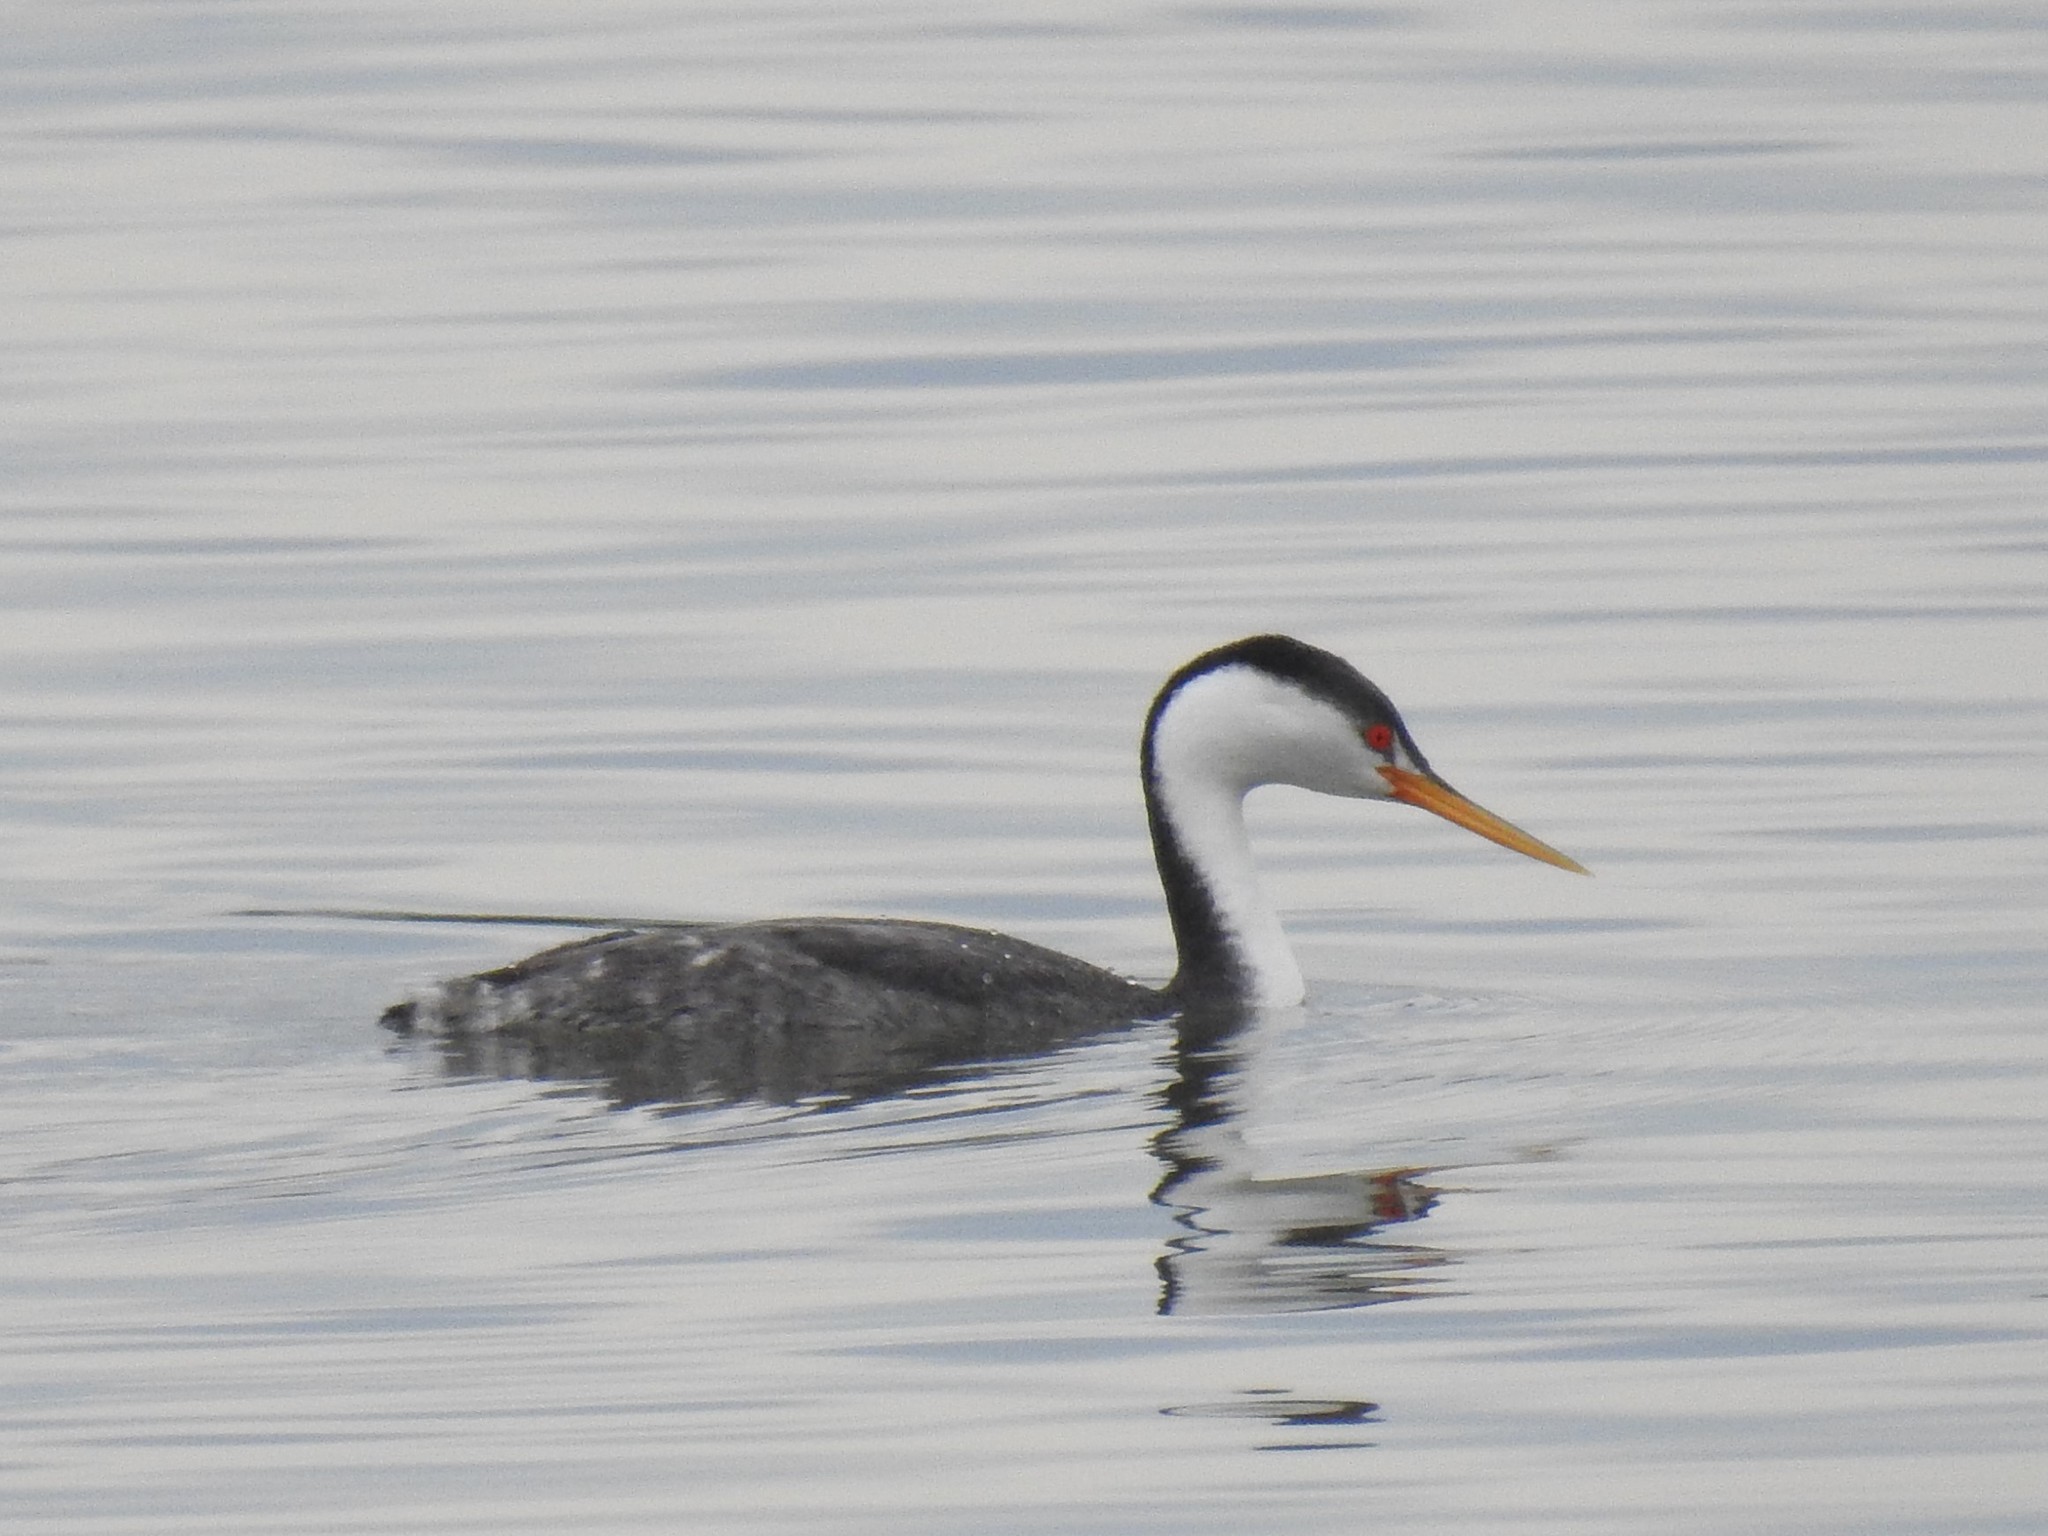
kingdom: Animalia
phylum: Chordata
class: Aves
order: Podicipediformes
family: Podicipedidae
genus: Aechmophorus
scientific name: Aechmophorus clarkii
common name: Clark's grebe
